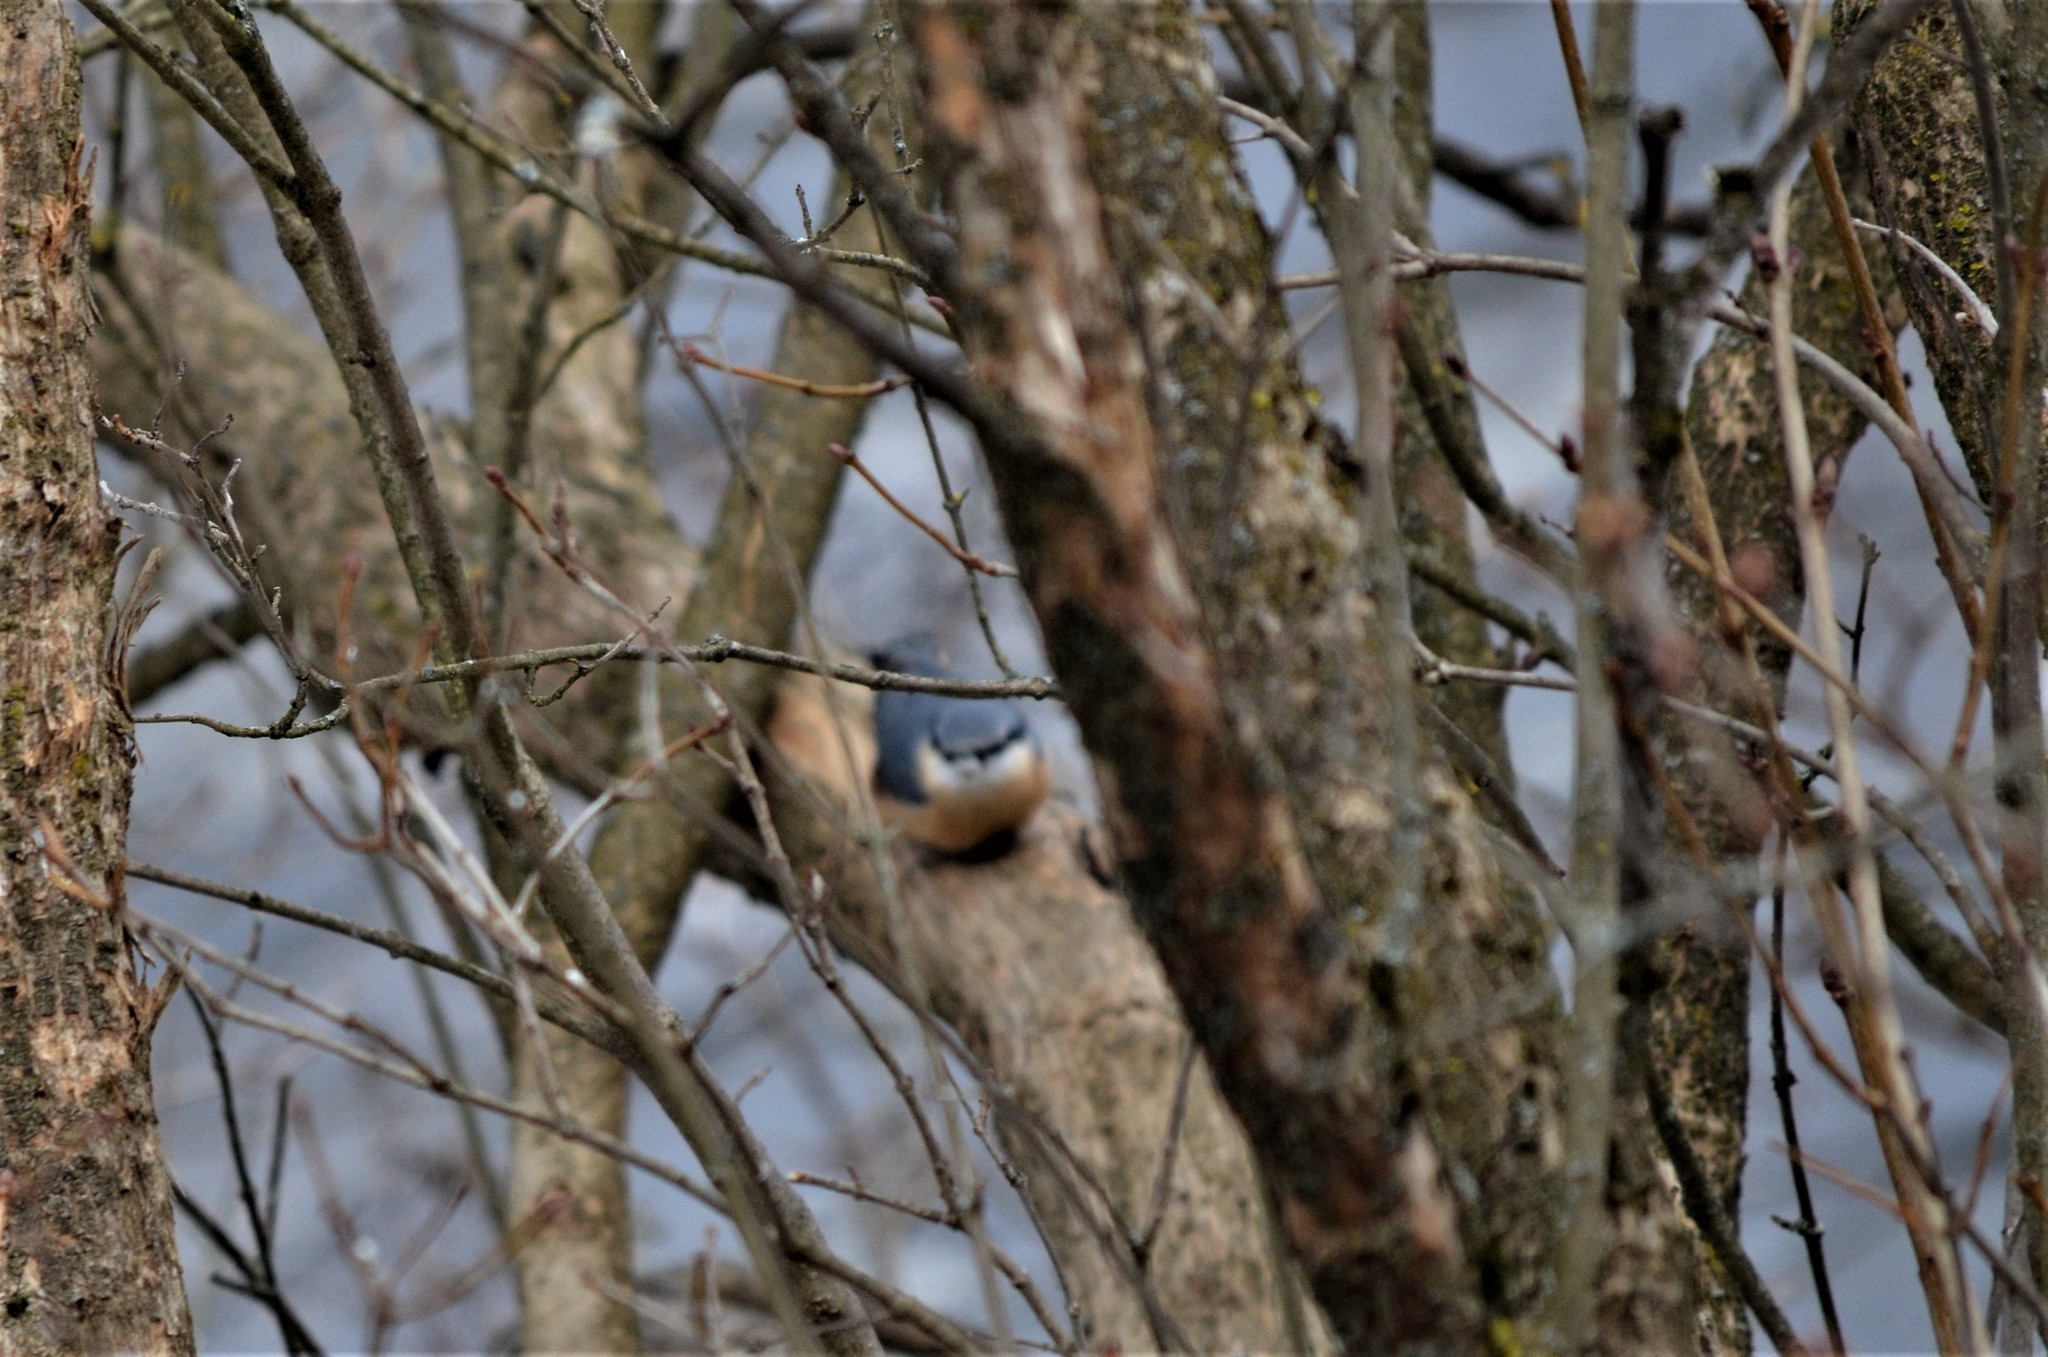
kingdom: Animalia
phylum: Chordata
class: Aves
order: Passeriformes
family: Sittidae
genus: Sitta
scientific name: Sitta europaea
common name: Eurasian nuthatch
